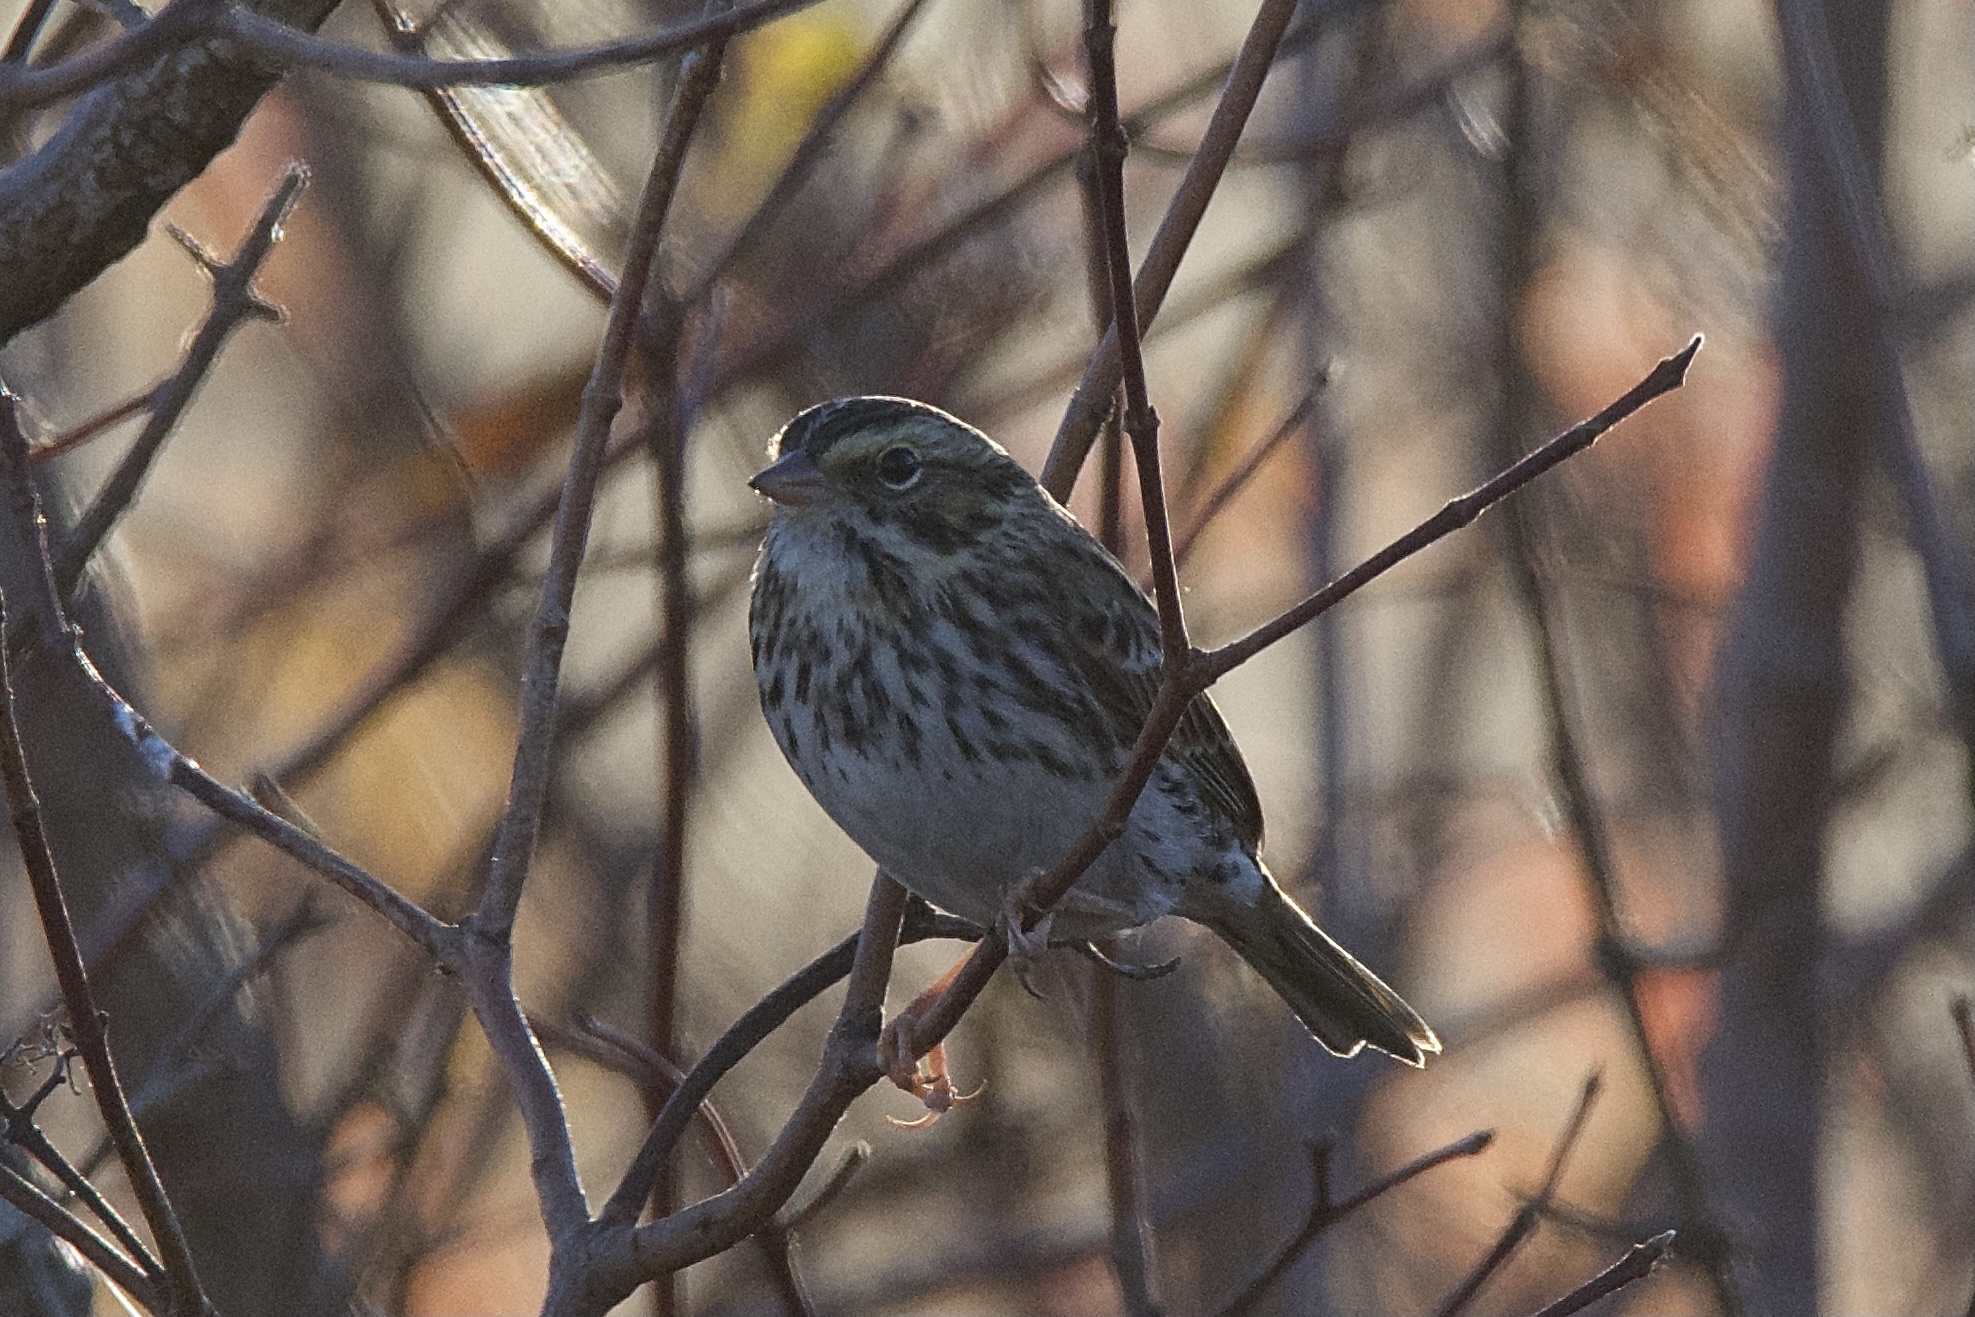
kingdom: Animalia
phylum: Chordata
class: Aves
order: Passeriformes
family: Passerellidae
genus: Passerculus
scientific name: Passerculus sandwichensis
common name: Savannah sparrow
